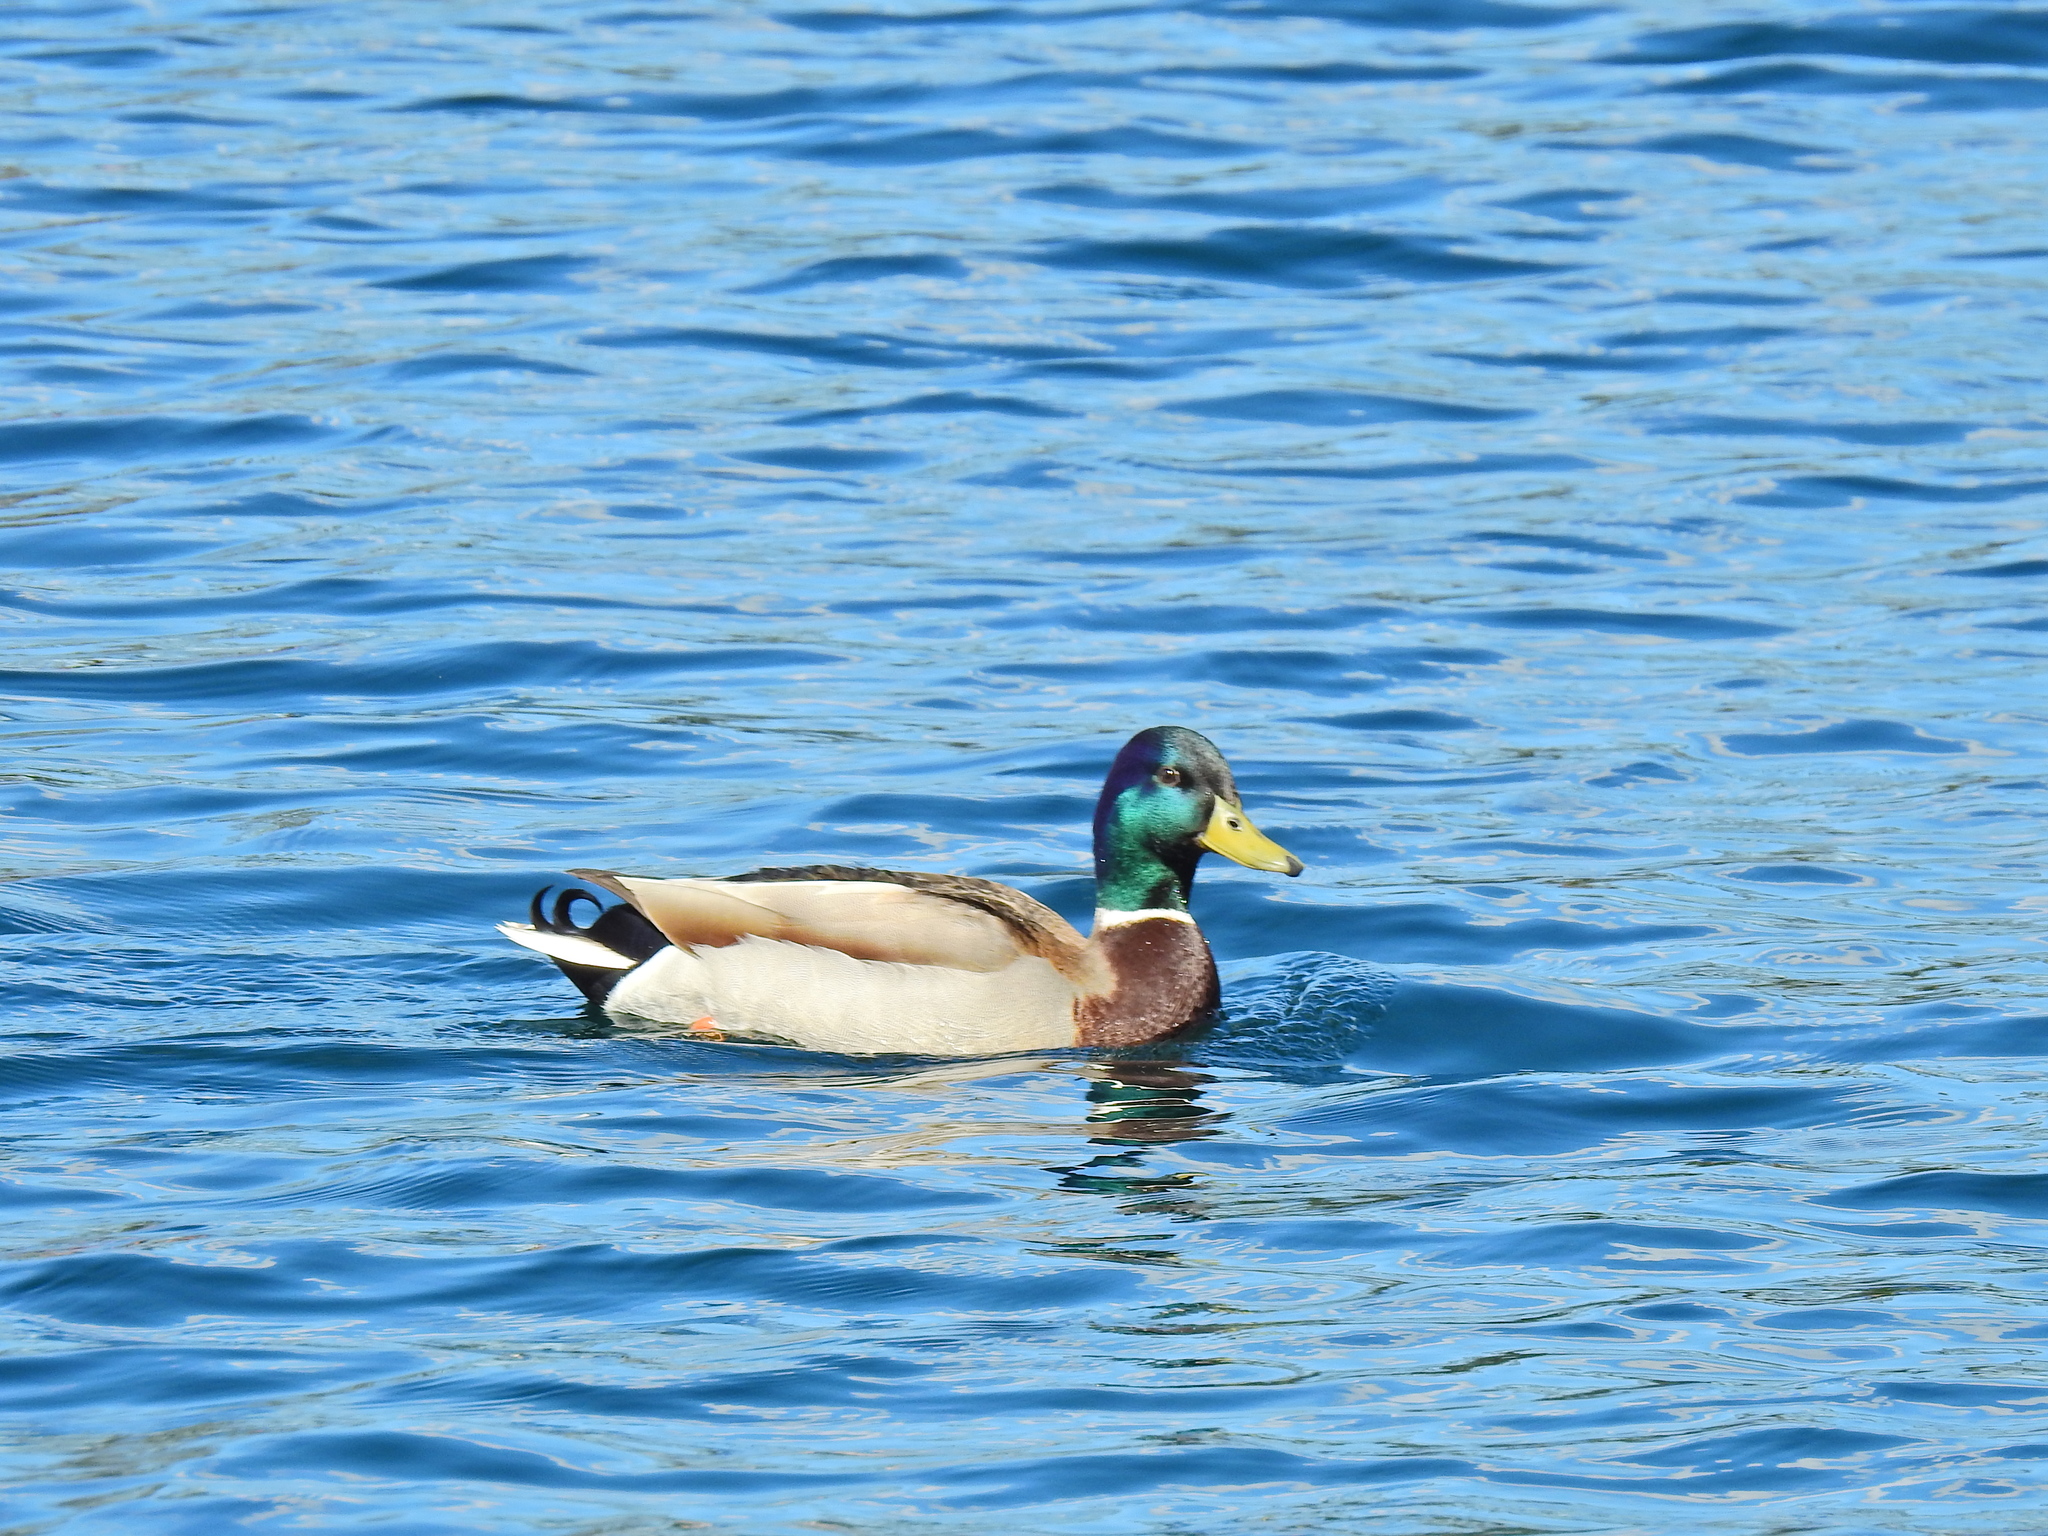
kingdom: Animalia
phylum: Chordata
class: Aves
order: Anseriformes
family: Anatidae
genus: Anas
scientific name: Anas platyrhynchos
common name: Mallard
